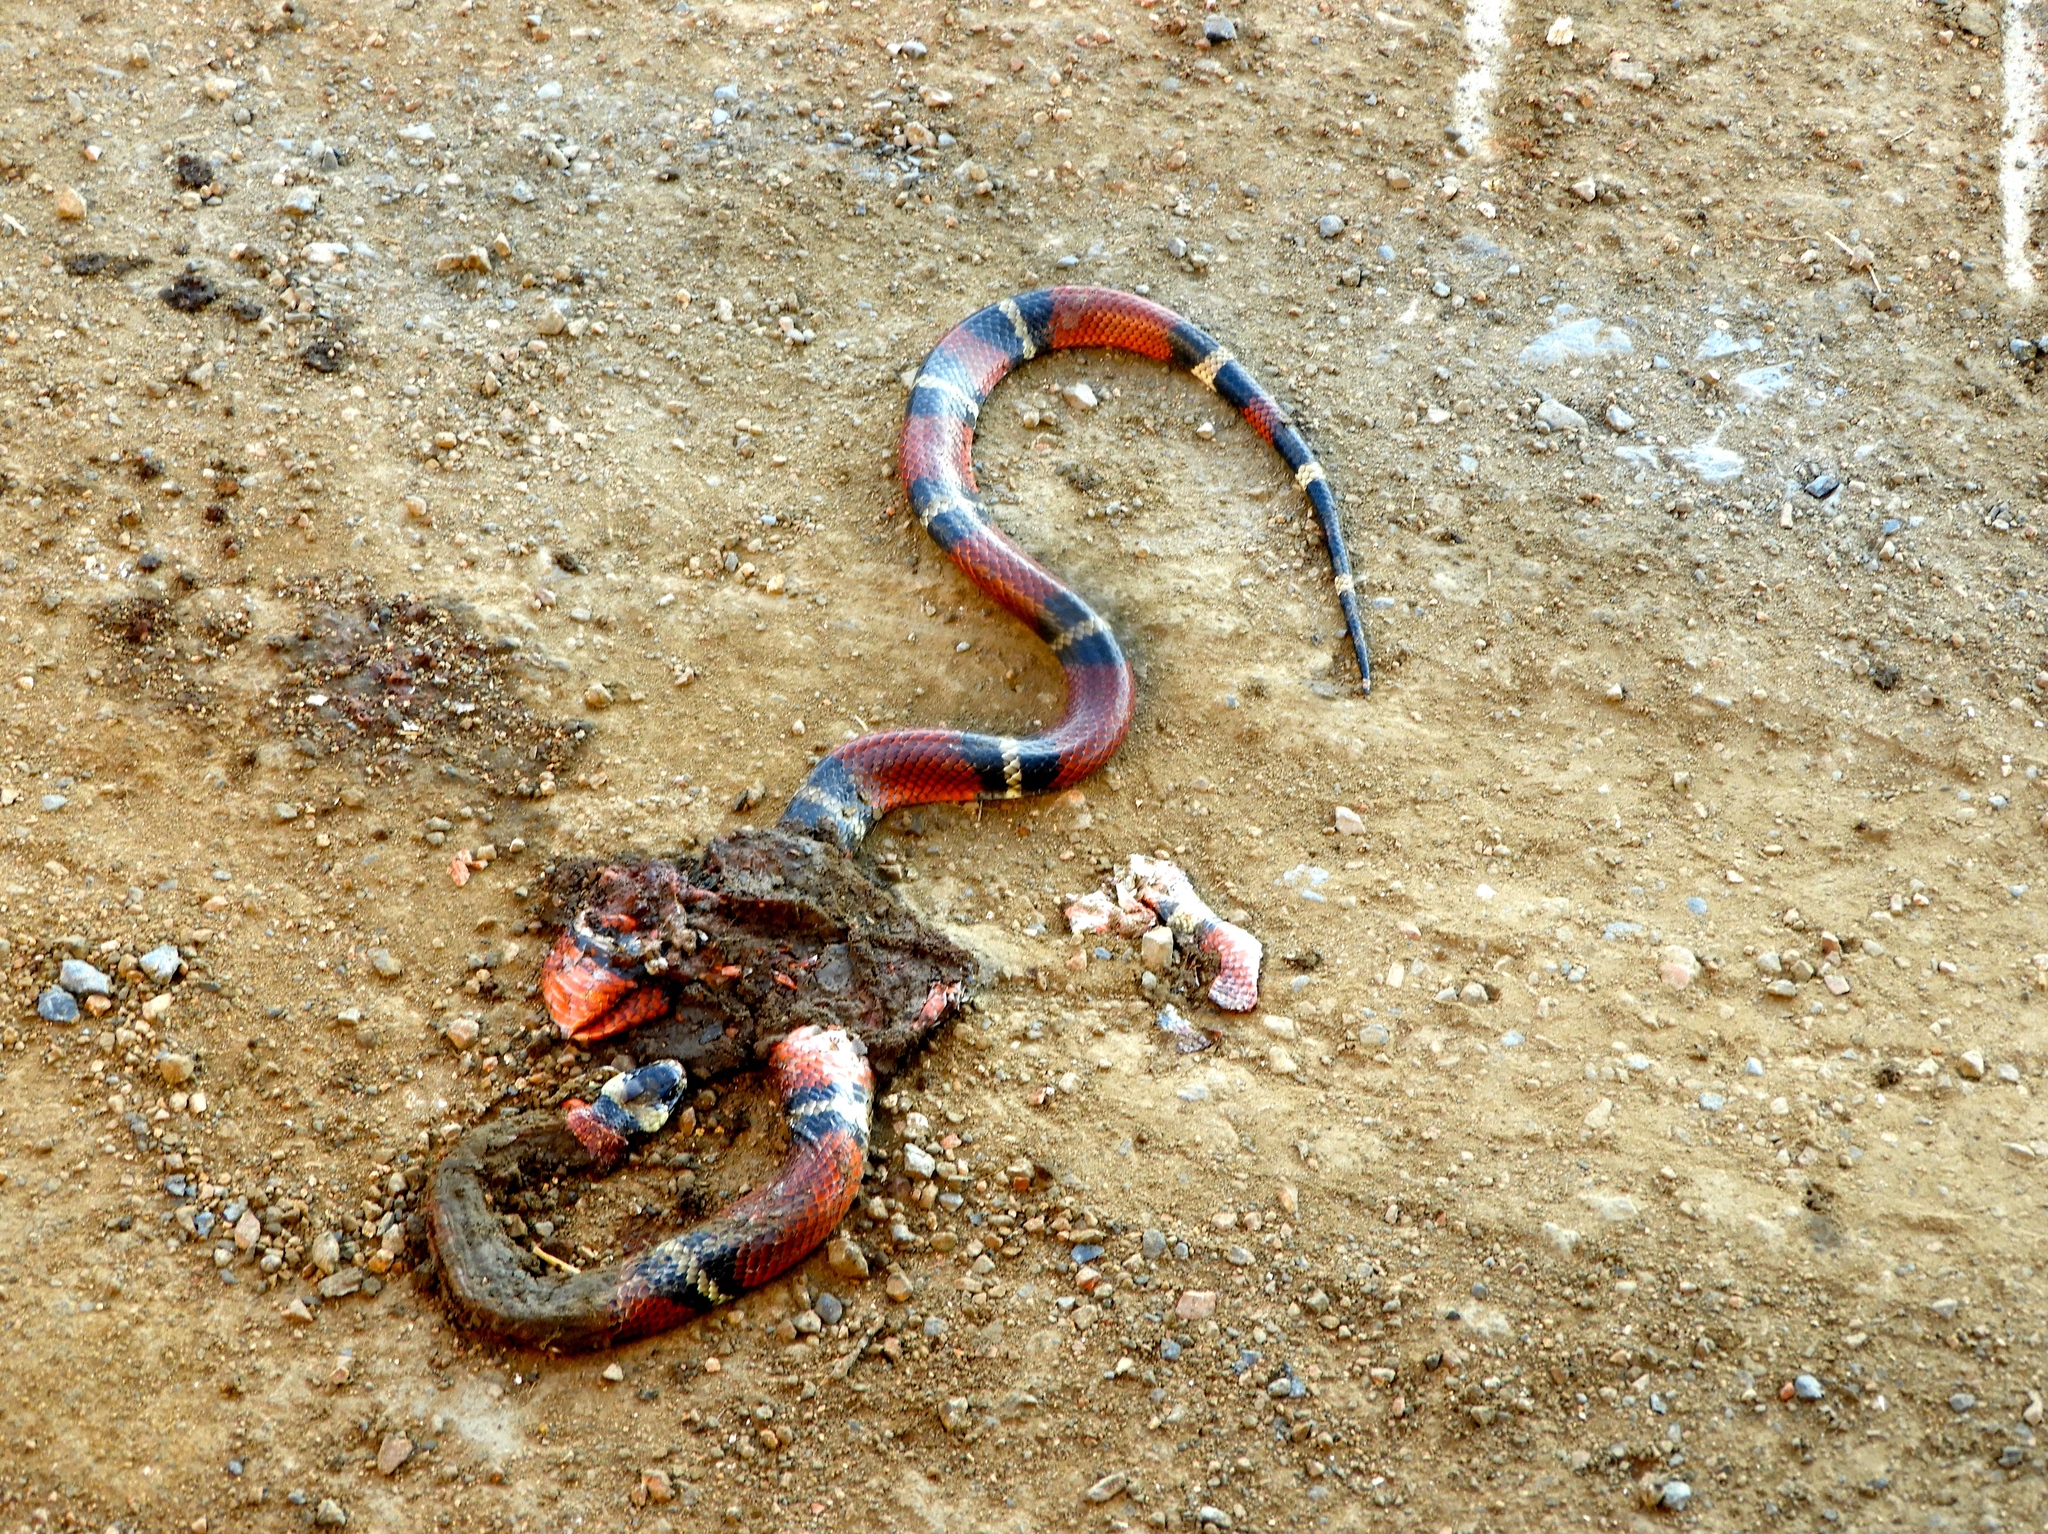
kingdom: Animalia
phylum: Chordata
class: Squamata
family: Colubridae
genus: Lampropeltis
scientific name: Lampropeltis polyzona
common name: Atlantic central american milksnake
